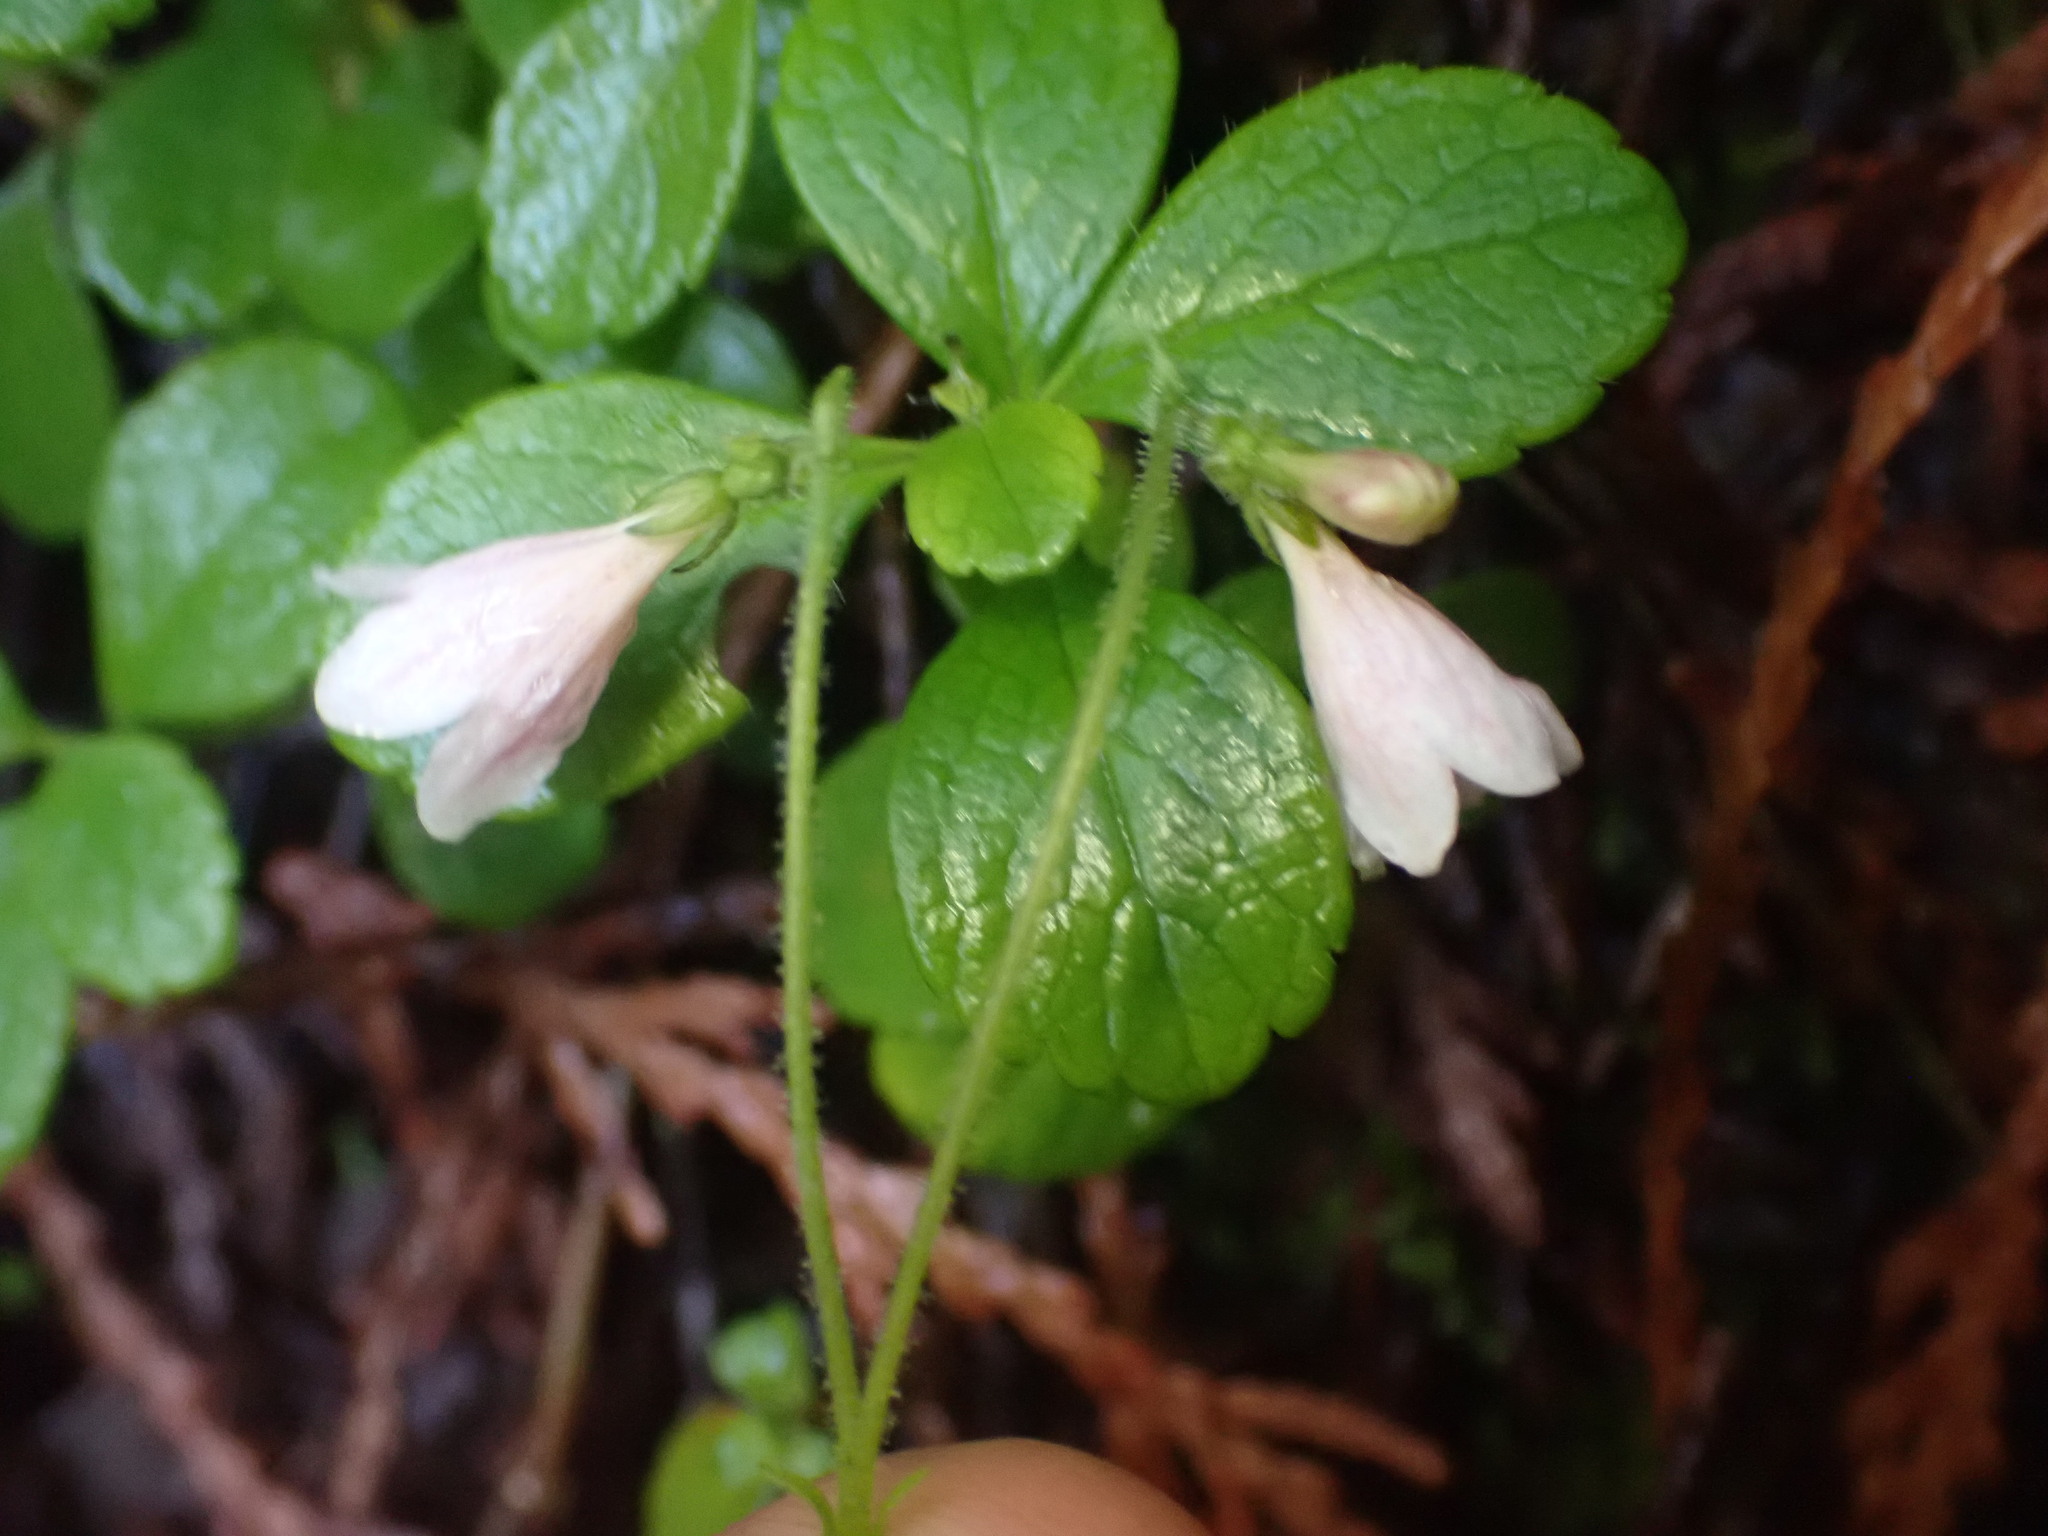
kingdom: Plantae
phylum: Tracheophyta
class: Magnoliopsida
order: Dipsacales
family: Caprifoliaceae
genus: Linnaea
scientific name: Linnaea borealis
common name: Twinflower
